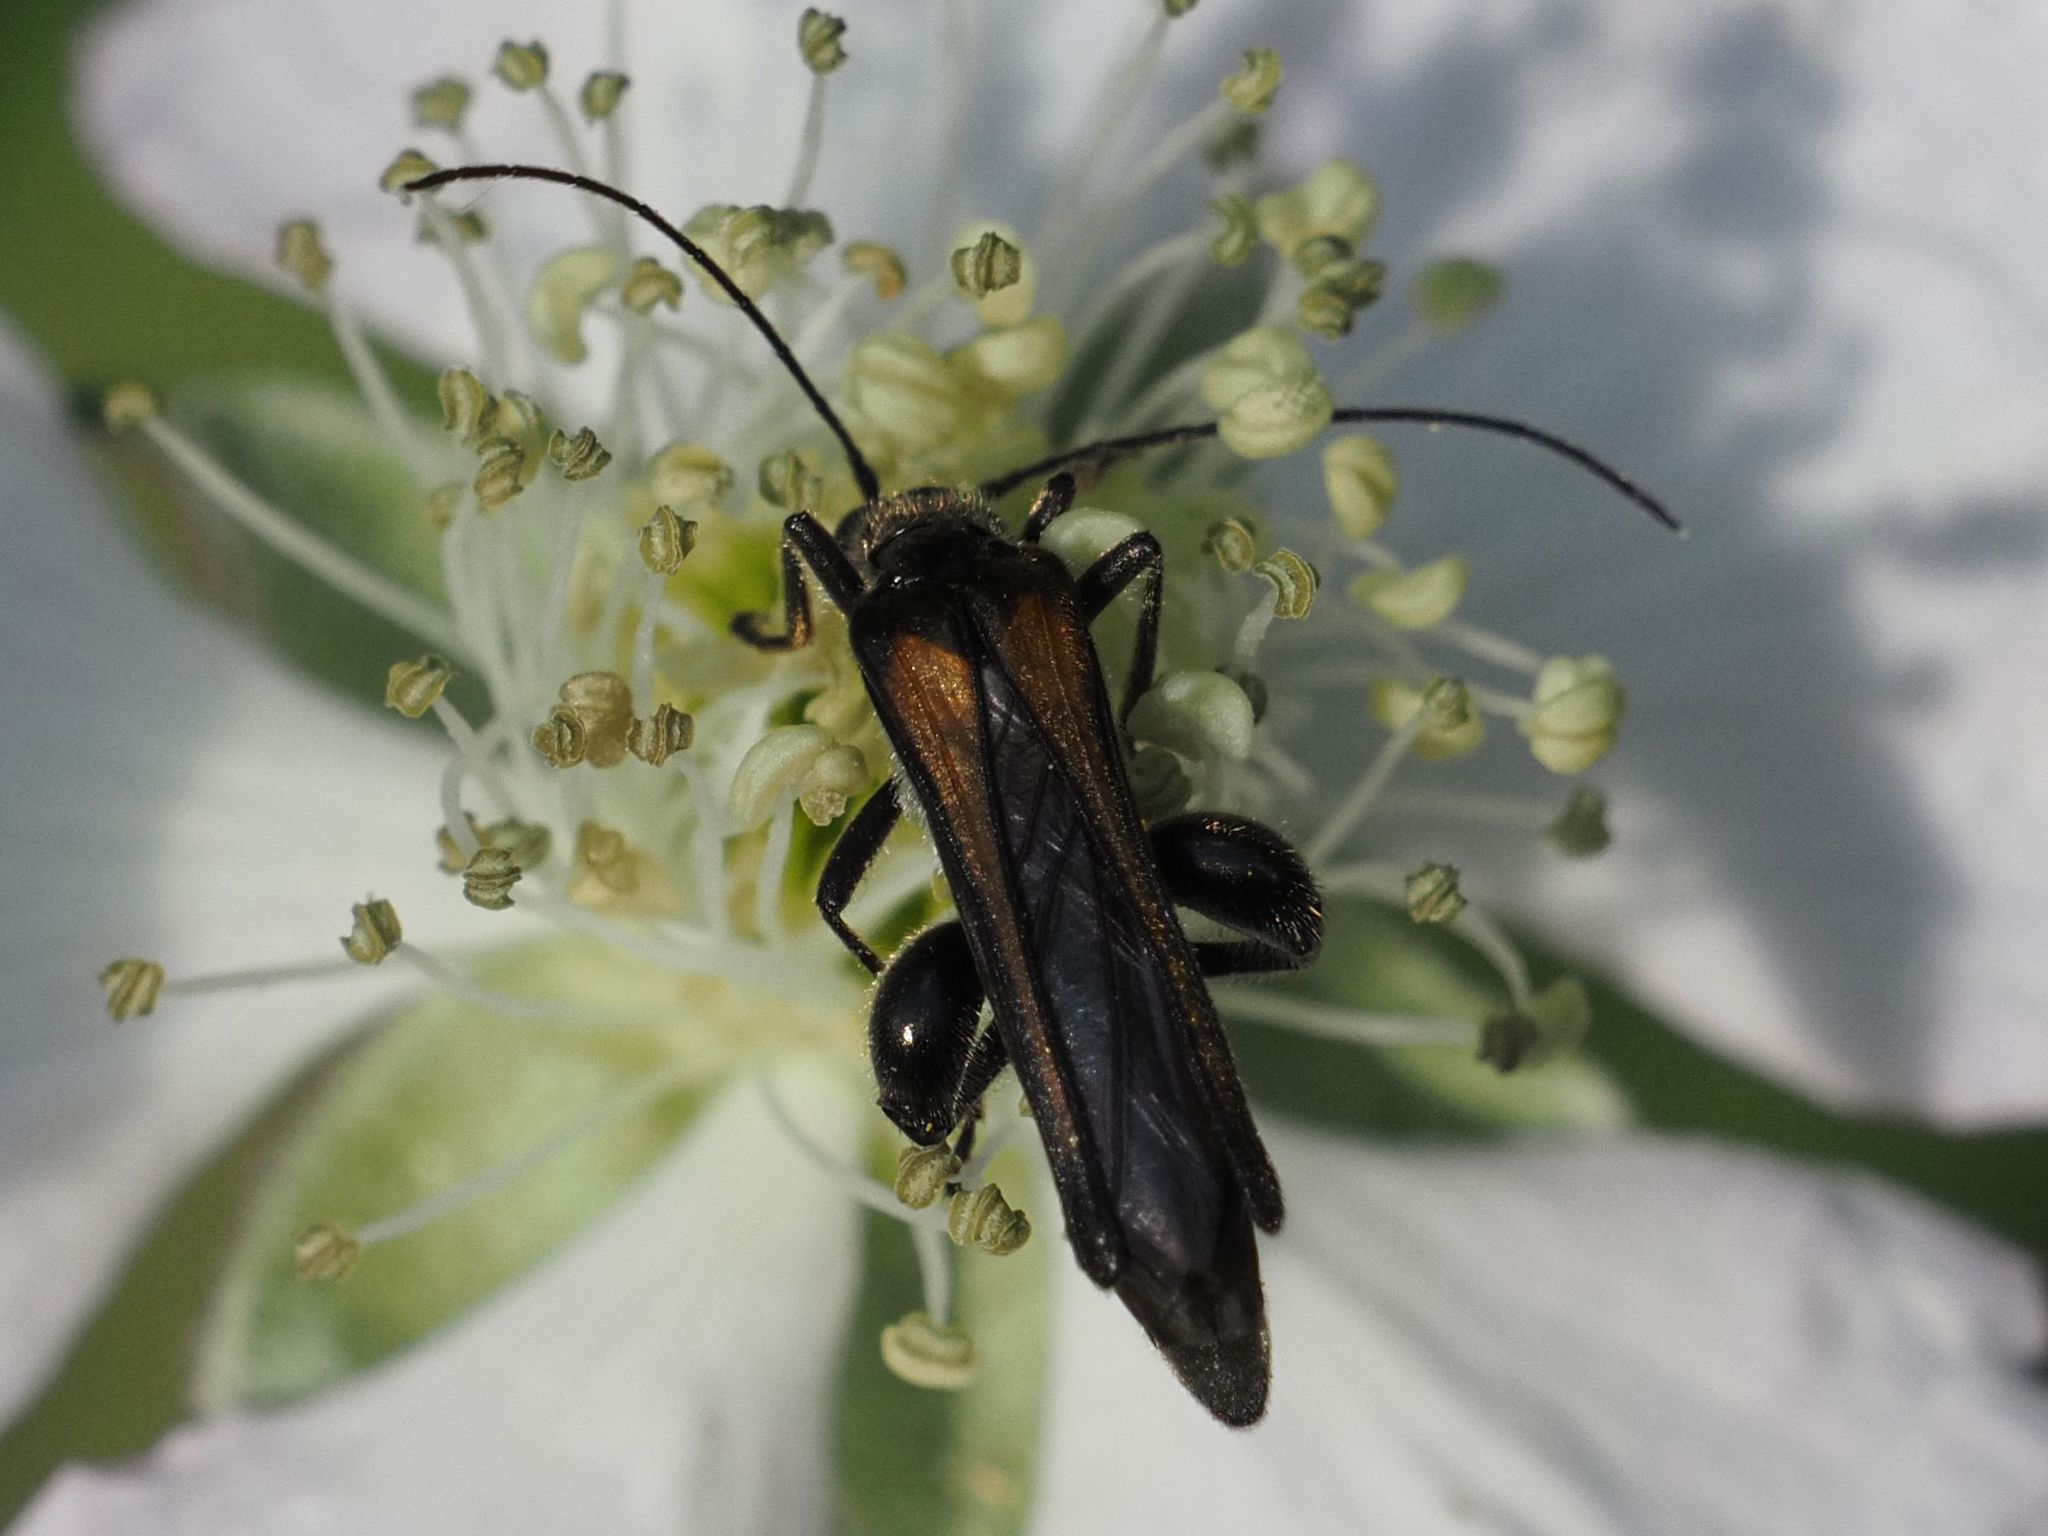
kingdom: Animalia
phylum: Arthropoda
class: Insecta
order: Coleoptera
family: Oedemeridae
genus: Oedemera
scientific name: Oedemera pthysica
